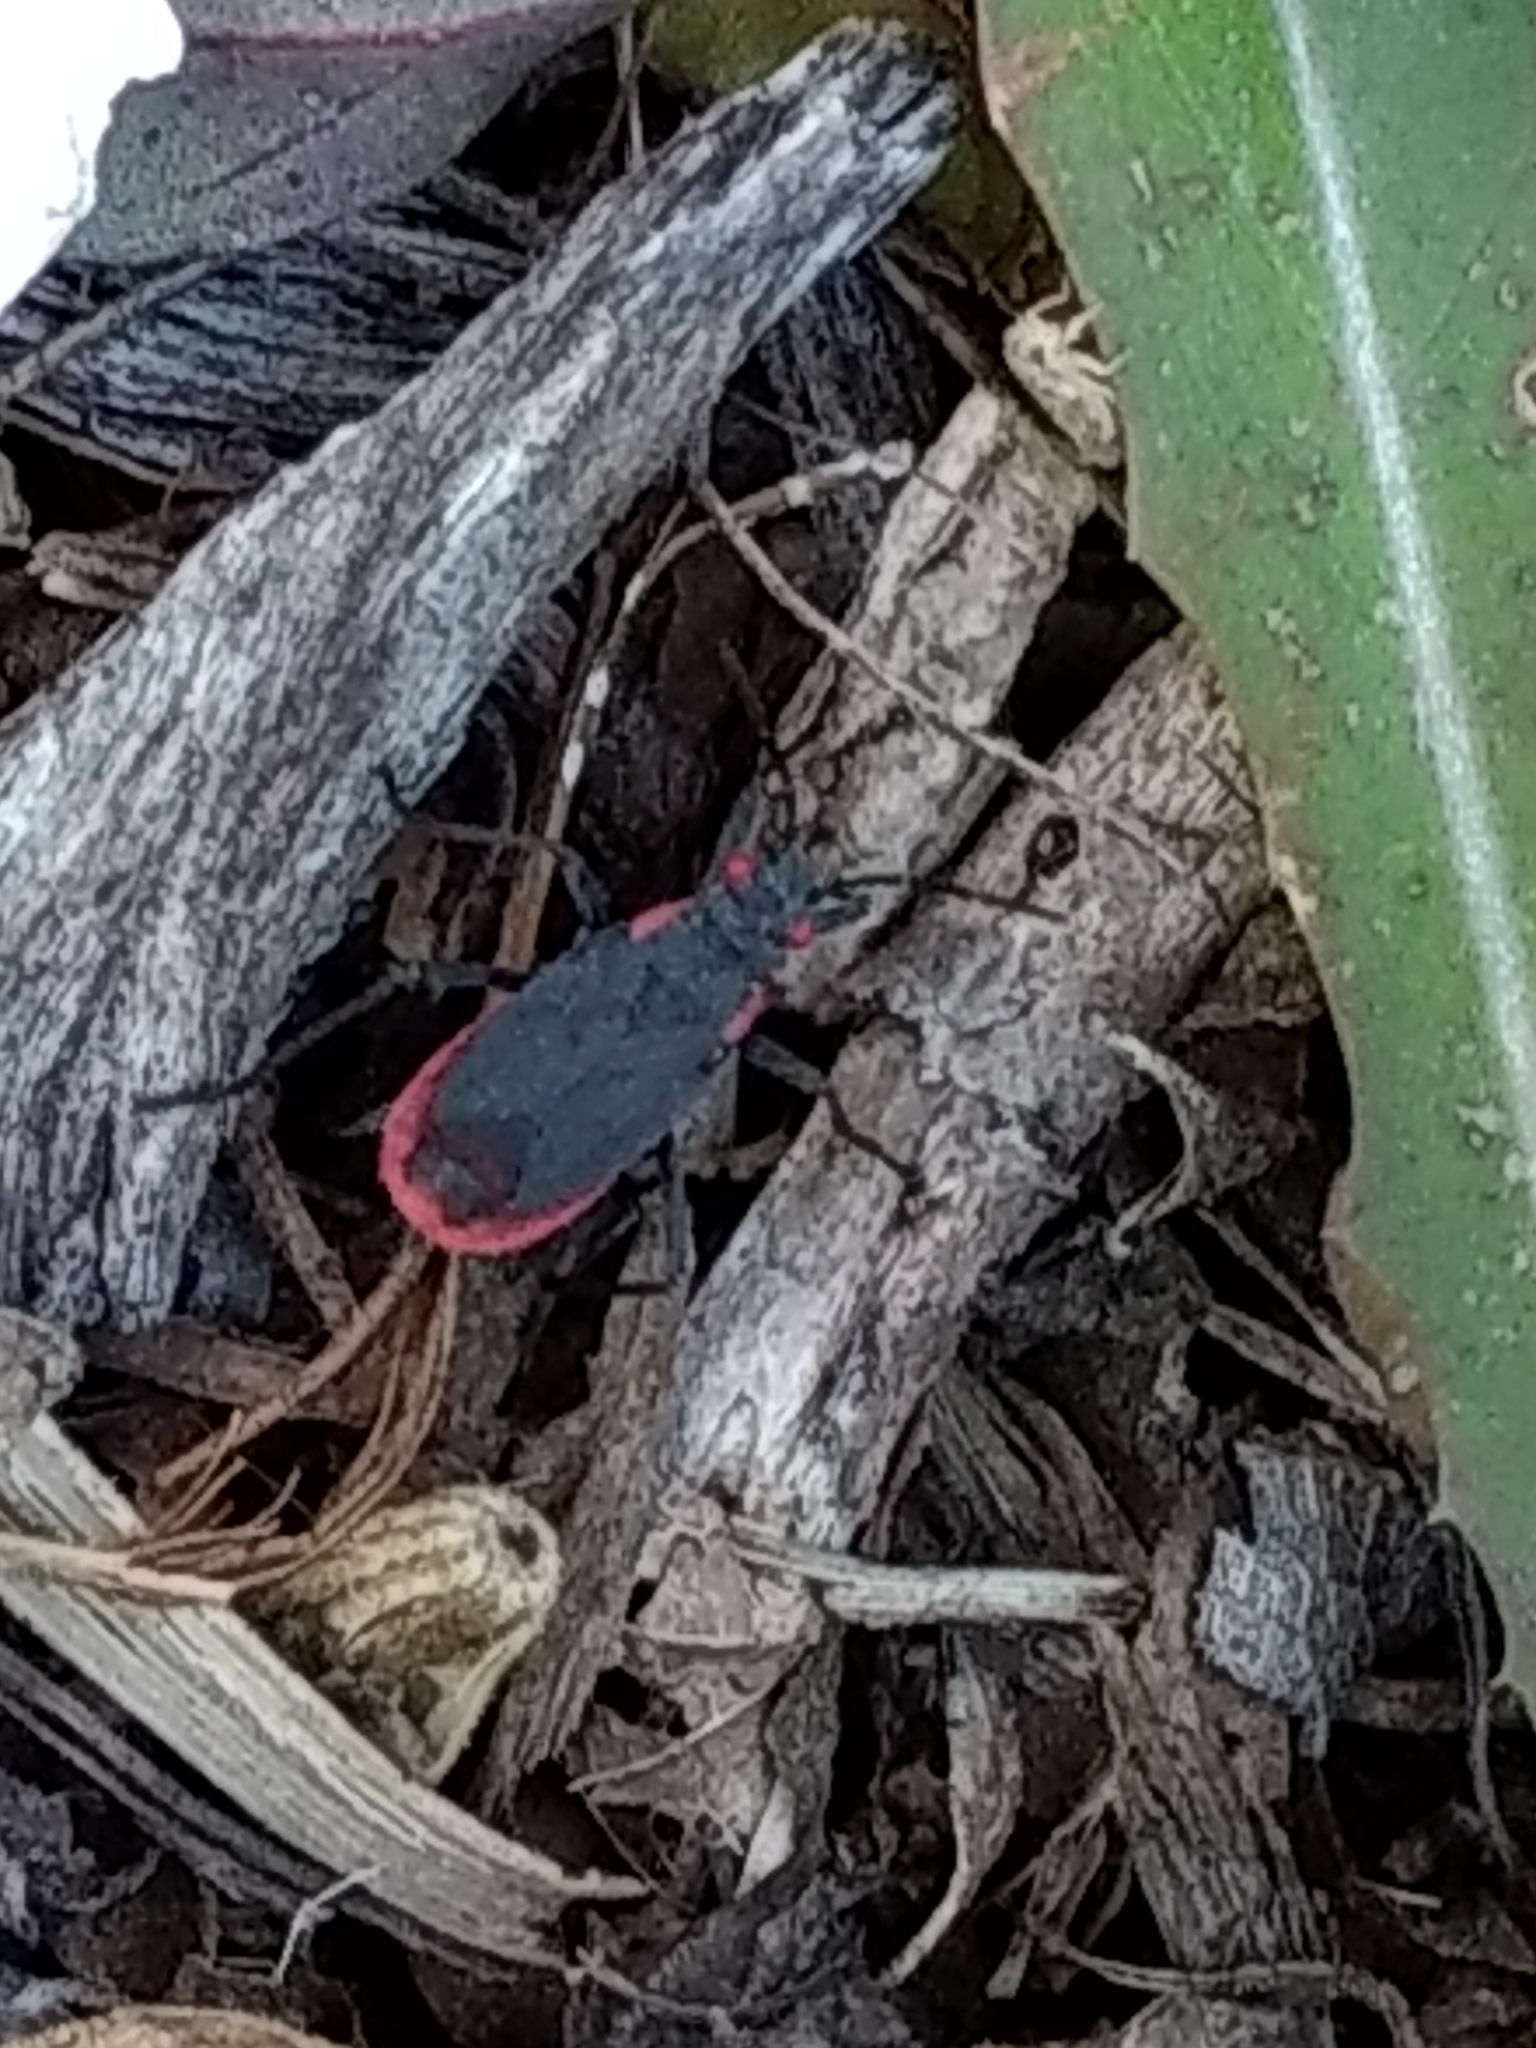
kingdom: Animalia
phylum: Arthropoda
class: Insecta
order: Hemiptera
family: Rhopalidae
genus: Jadera
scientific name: Jadera haematoloma
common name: Red-shouldered bug
